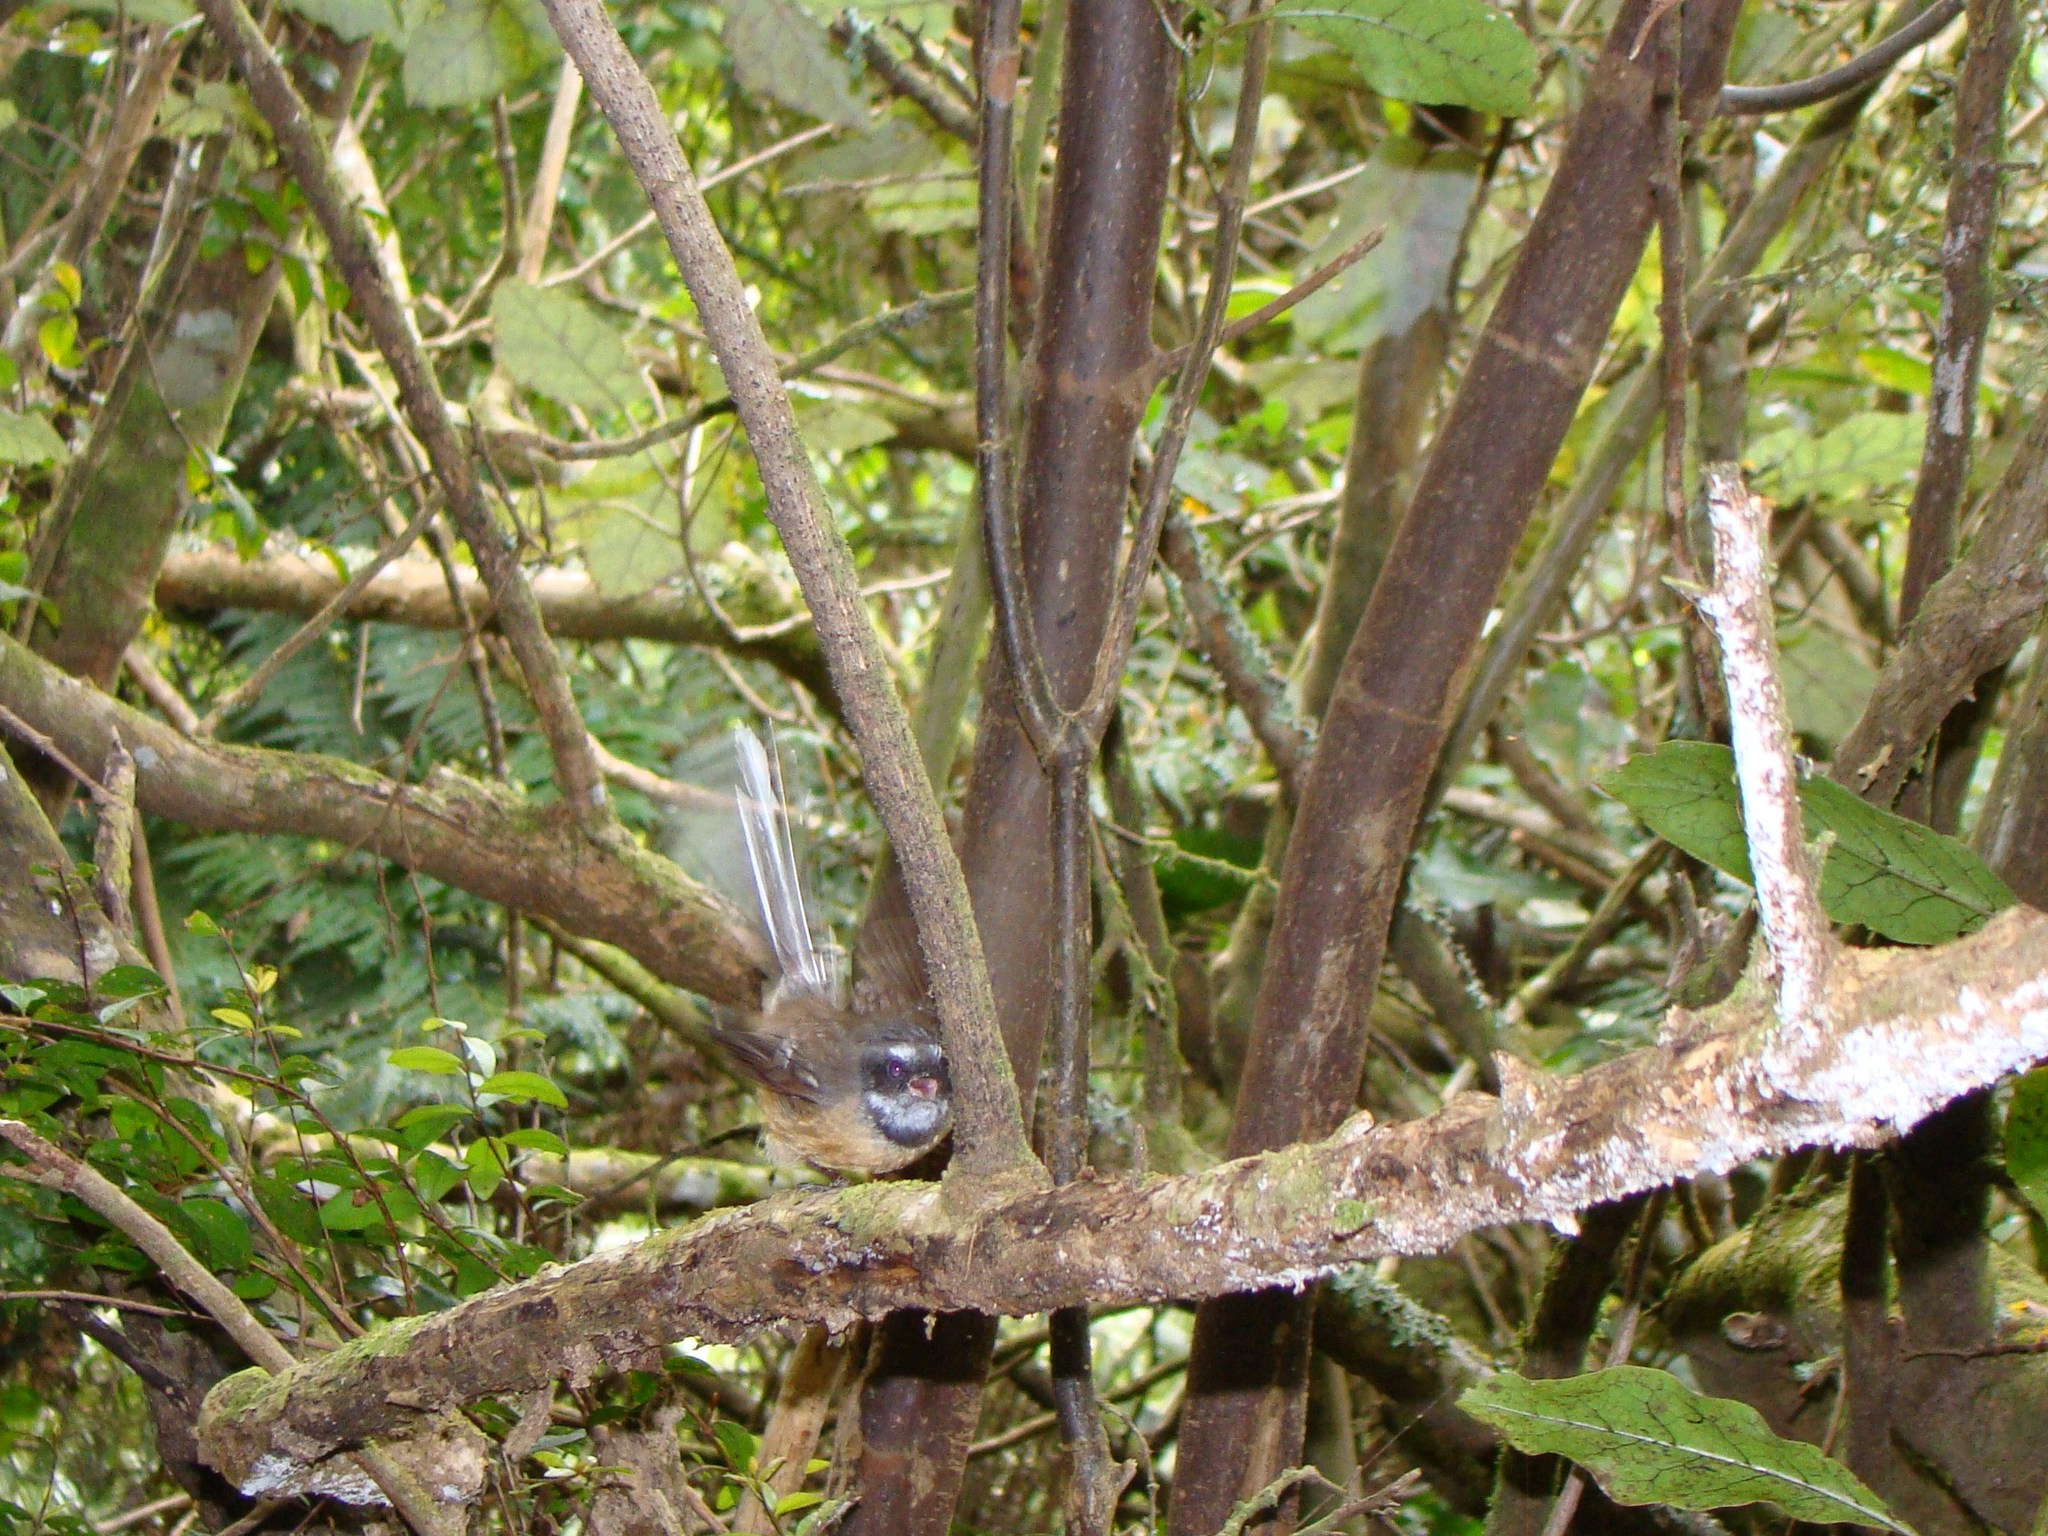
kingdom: Animalia
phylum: Chordata
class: Aves
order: Passeriformes
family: Rhipiduridae
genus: Rhipidura
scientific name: Rhipidura fuliginosa
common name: New zealand fantail
